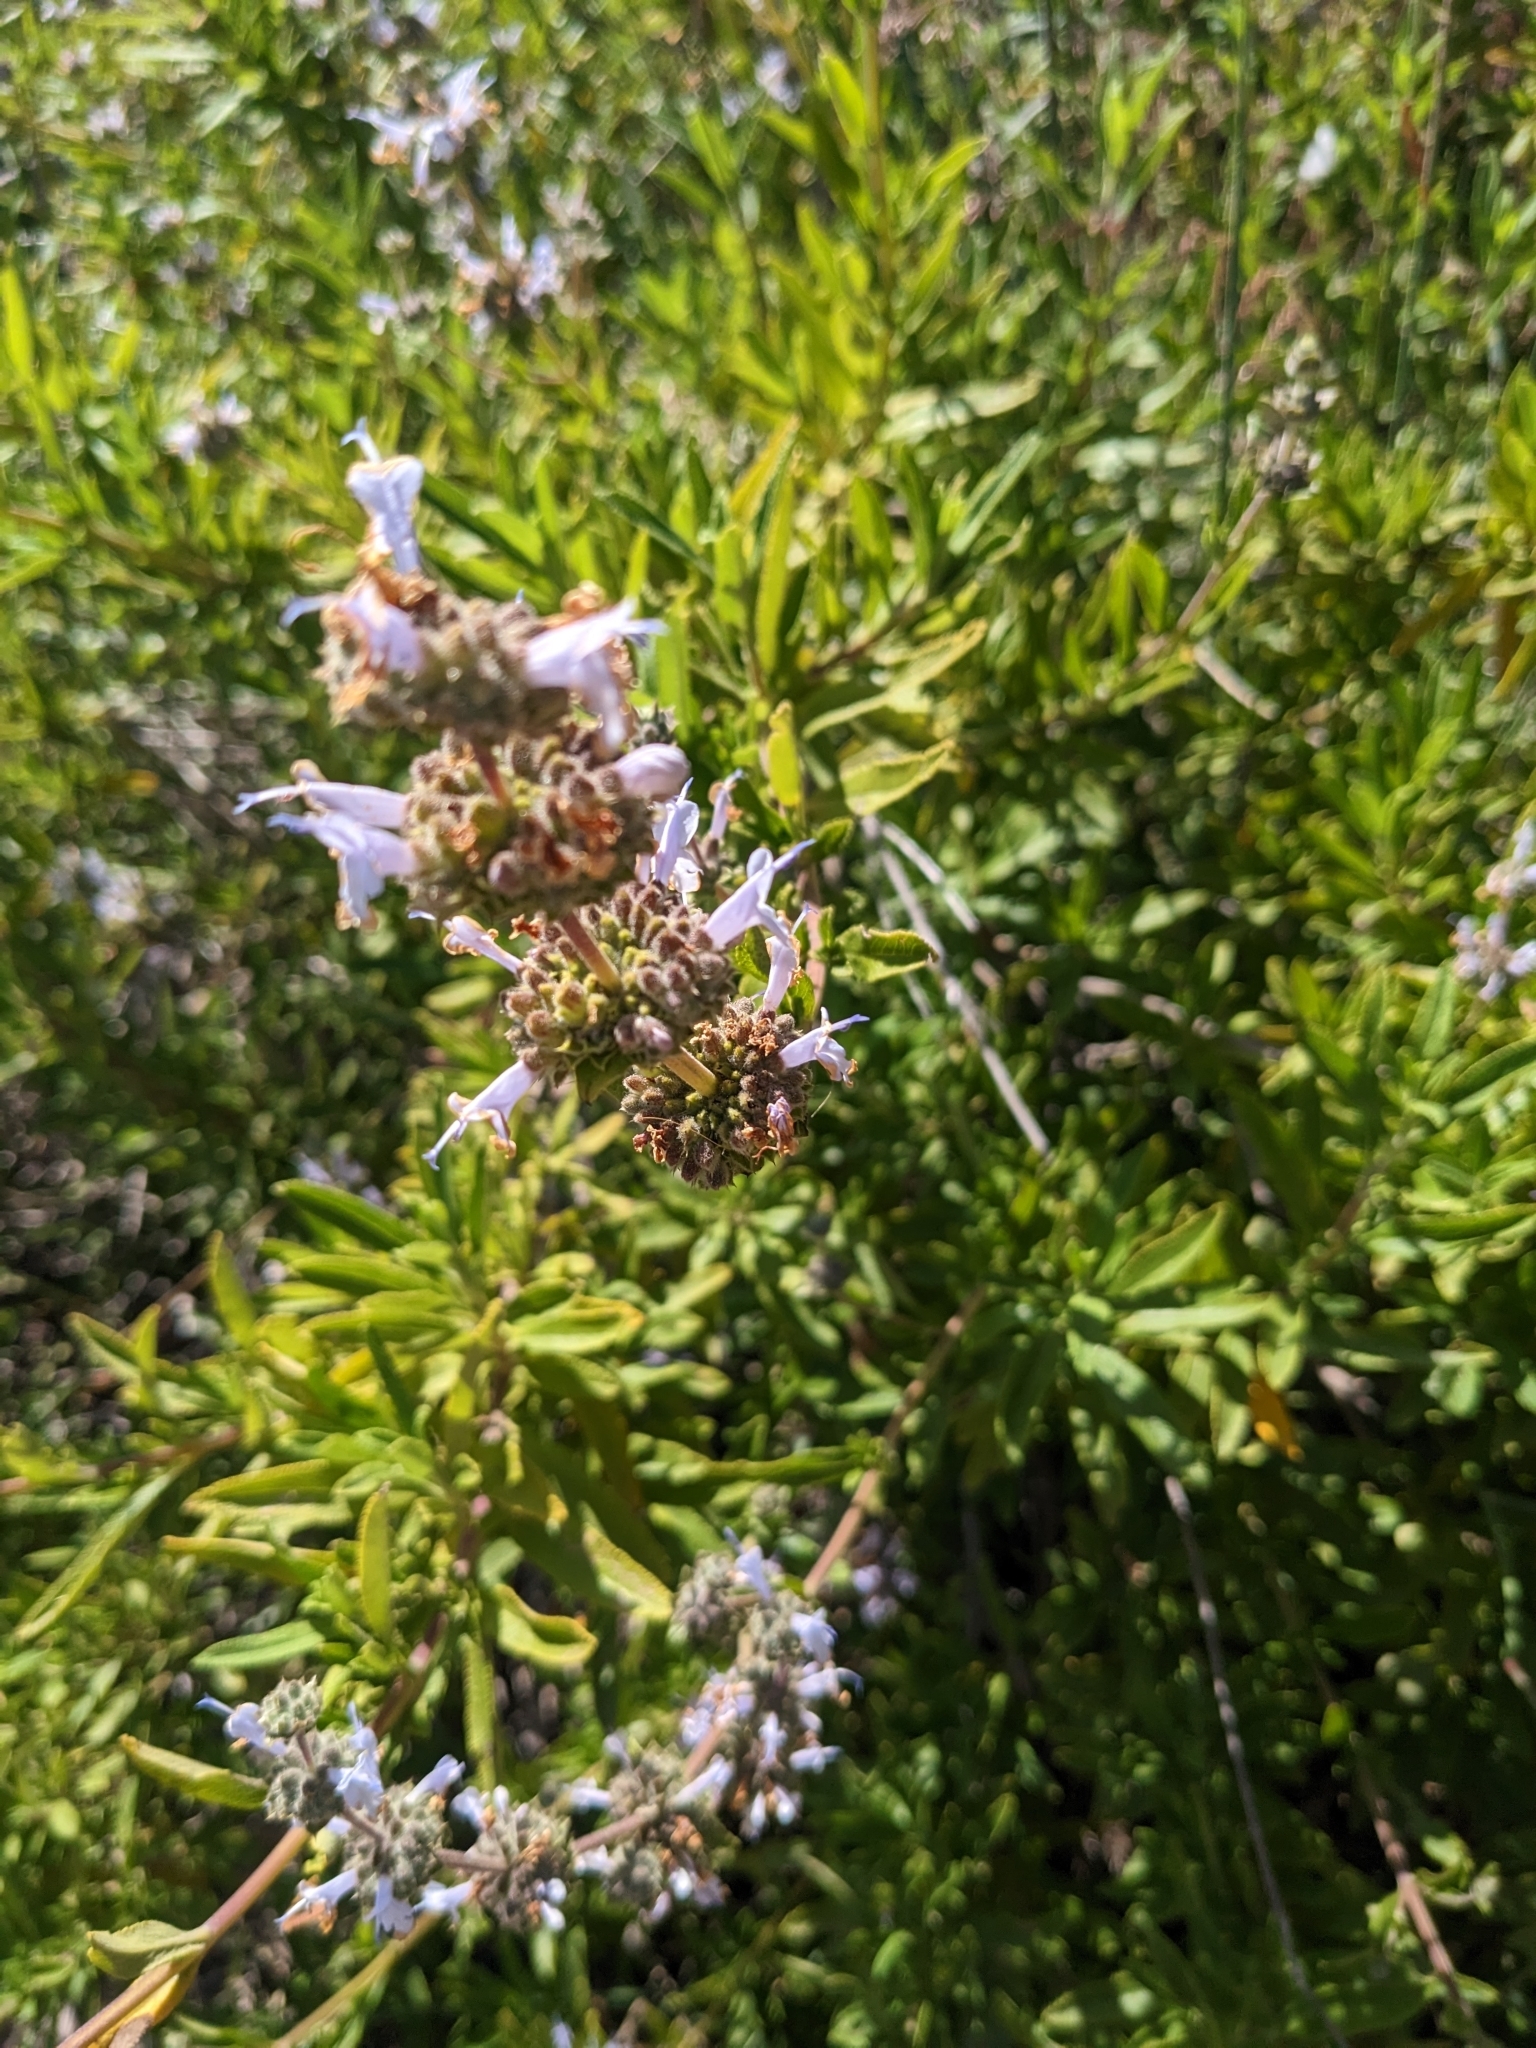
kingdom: Plantae
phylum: Tracheophyta
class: Magnoliopsida
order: Lamiales
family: Lamiaceae
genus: Salvia
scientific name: Salvia mellifera
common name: Black sage
